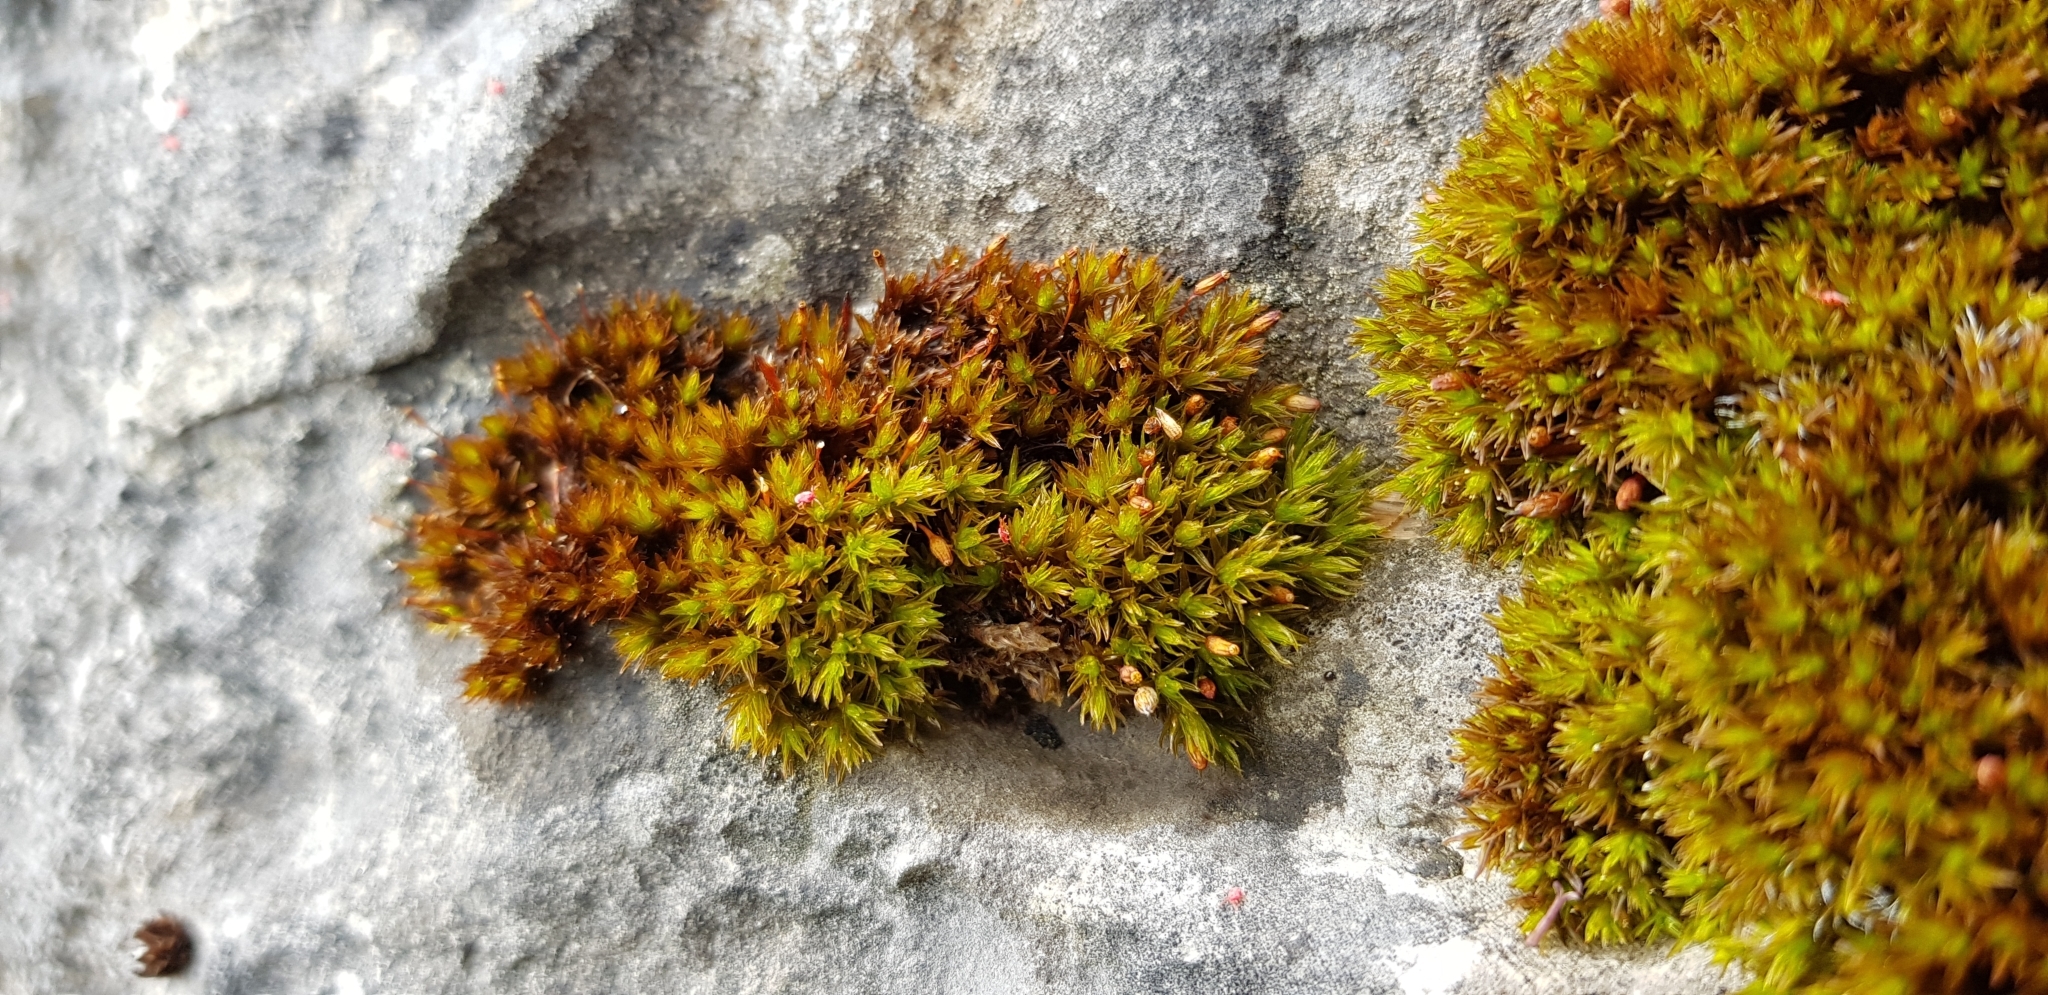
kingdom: Plantae
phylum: Bryophyta
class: Bryopsida
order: Orthotrichales
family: Orthotrichaceae
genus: Orthotrichum
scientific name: Orthotrichum anomalum
